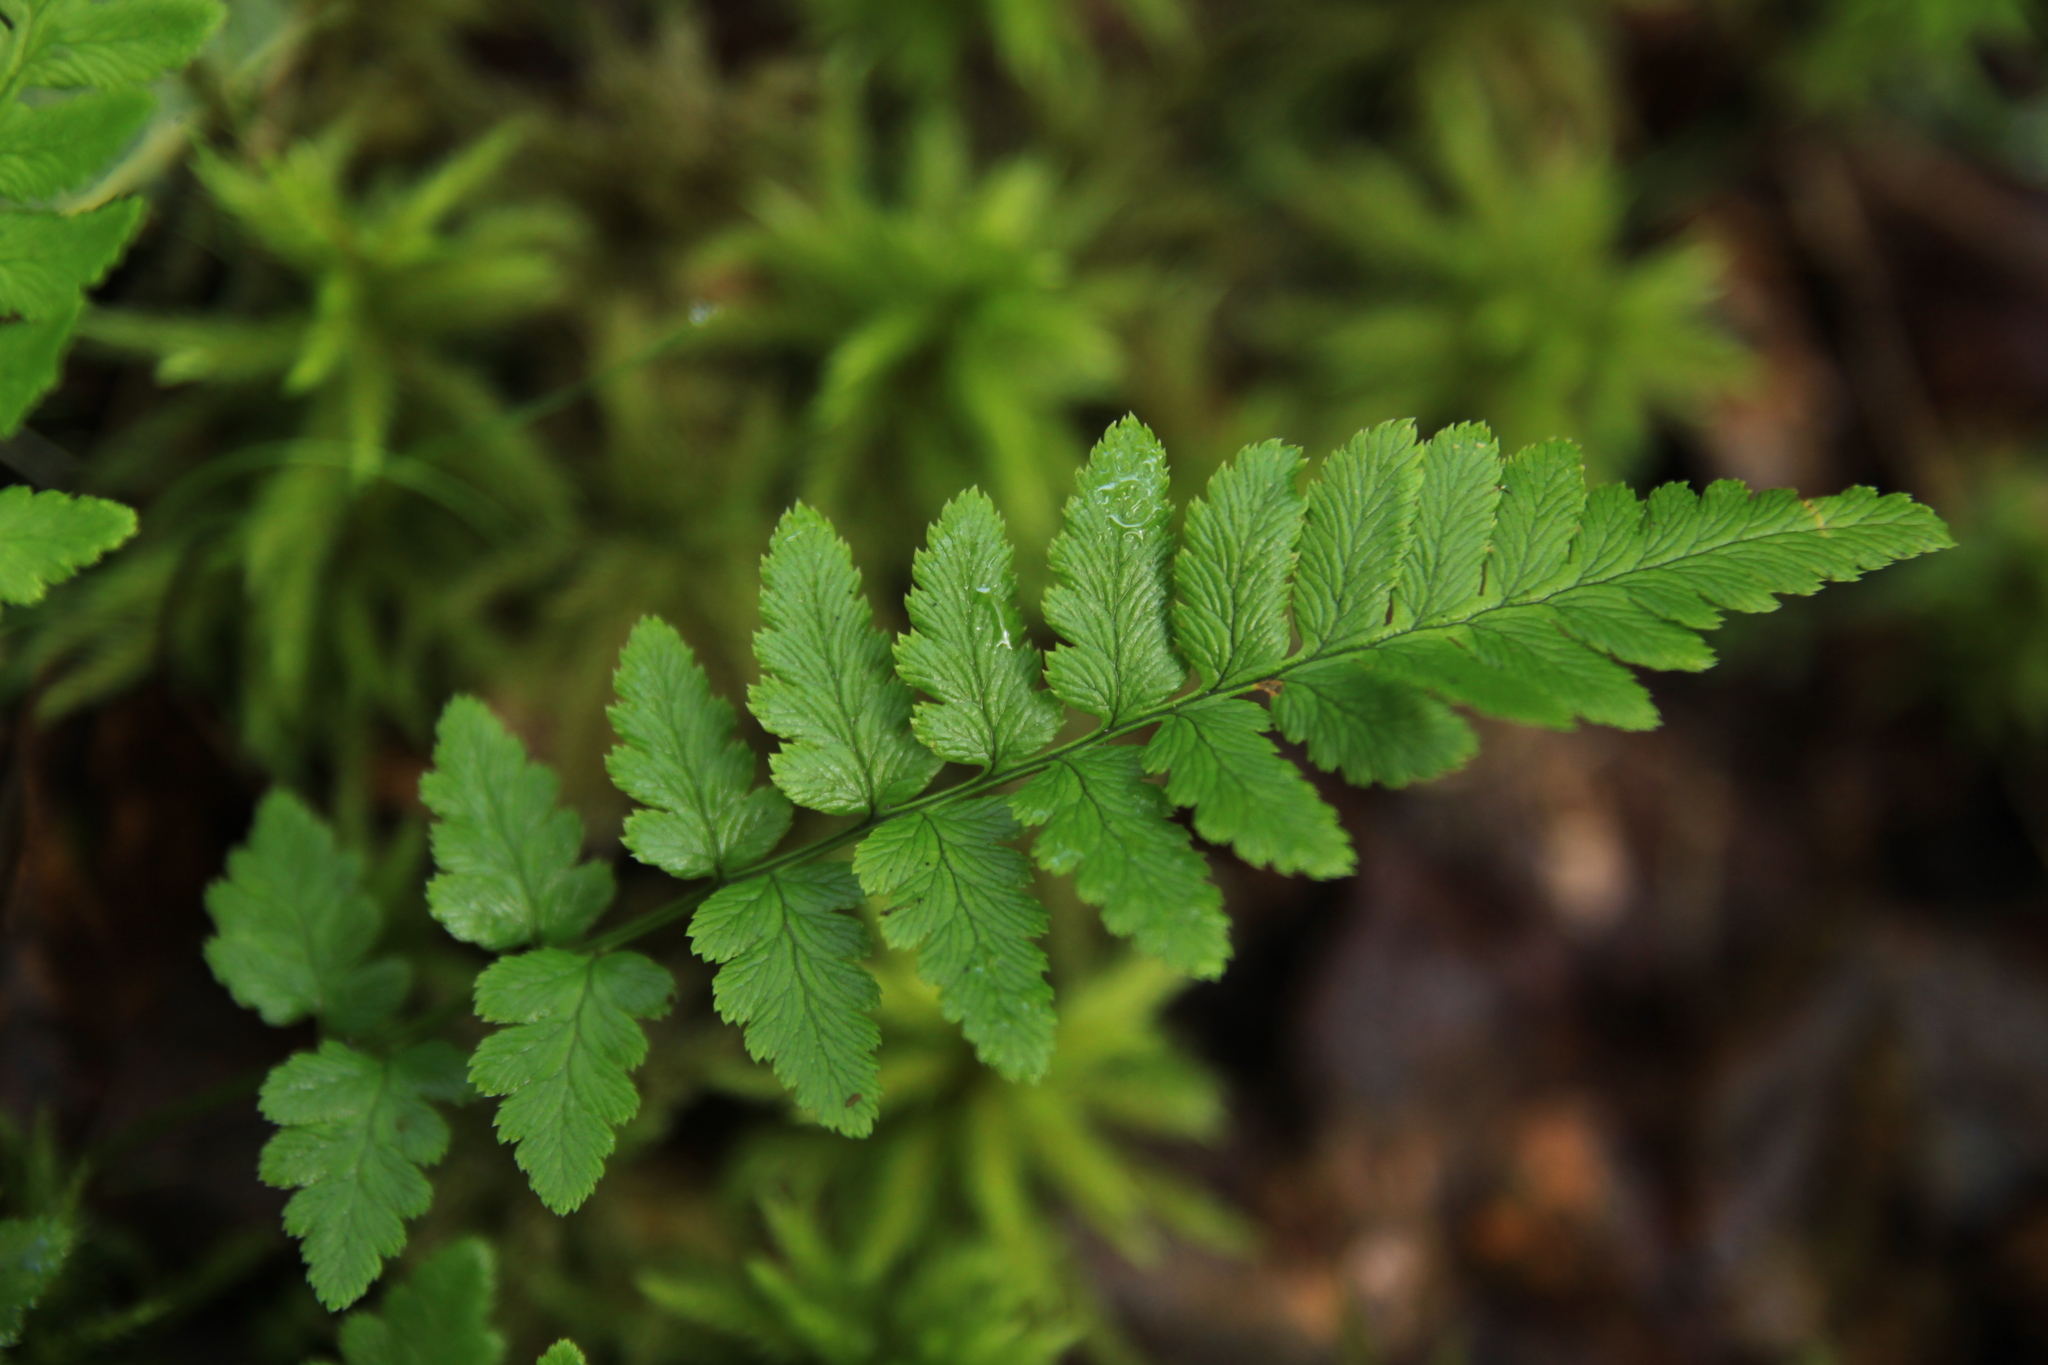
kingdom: Plantae
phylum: Tracheophyta
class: Polypodiopsida
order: Polypodiales
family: Dryopteridaceae
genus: Dryopteris
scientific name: Dryopteris cristata
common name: Crested wood fern
